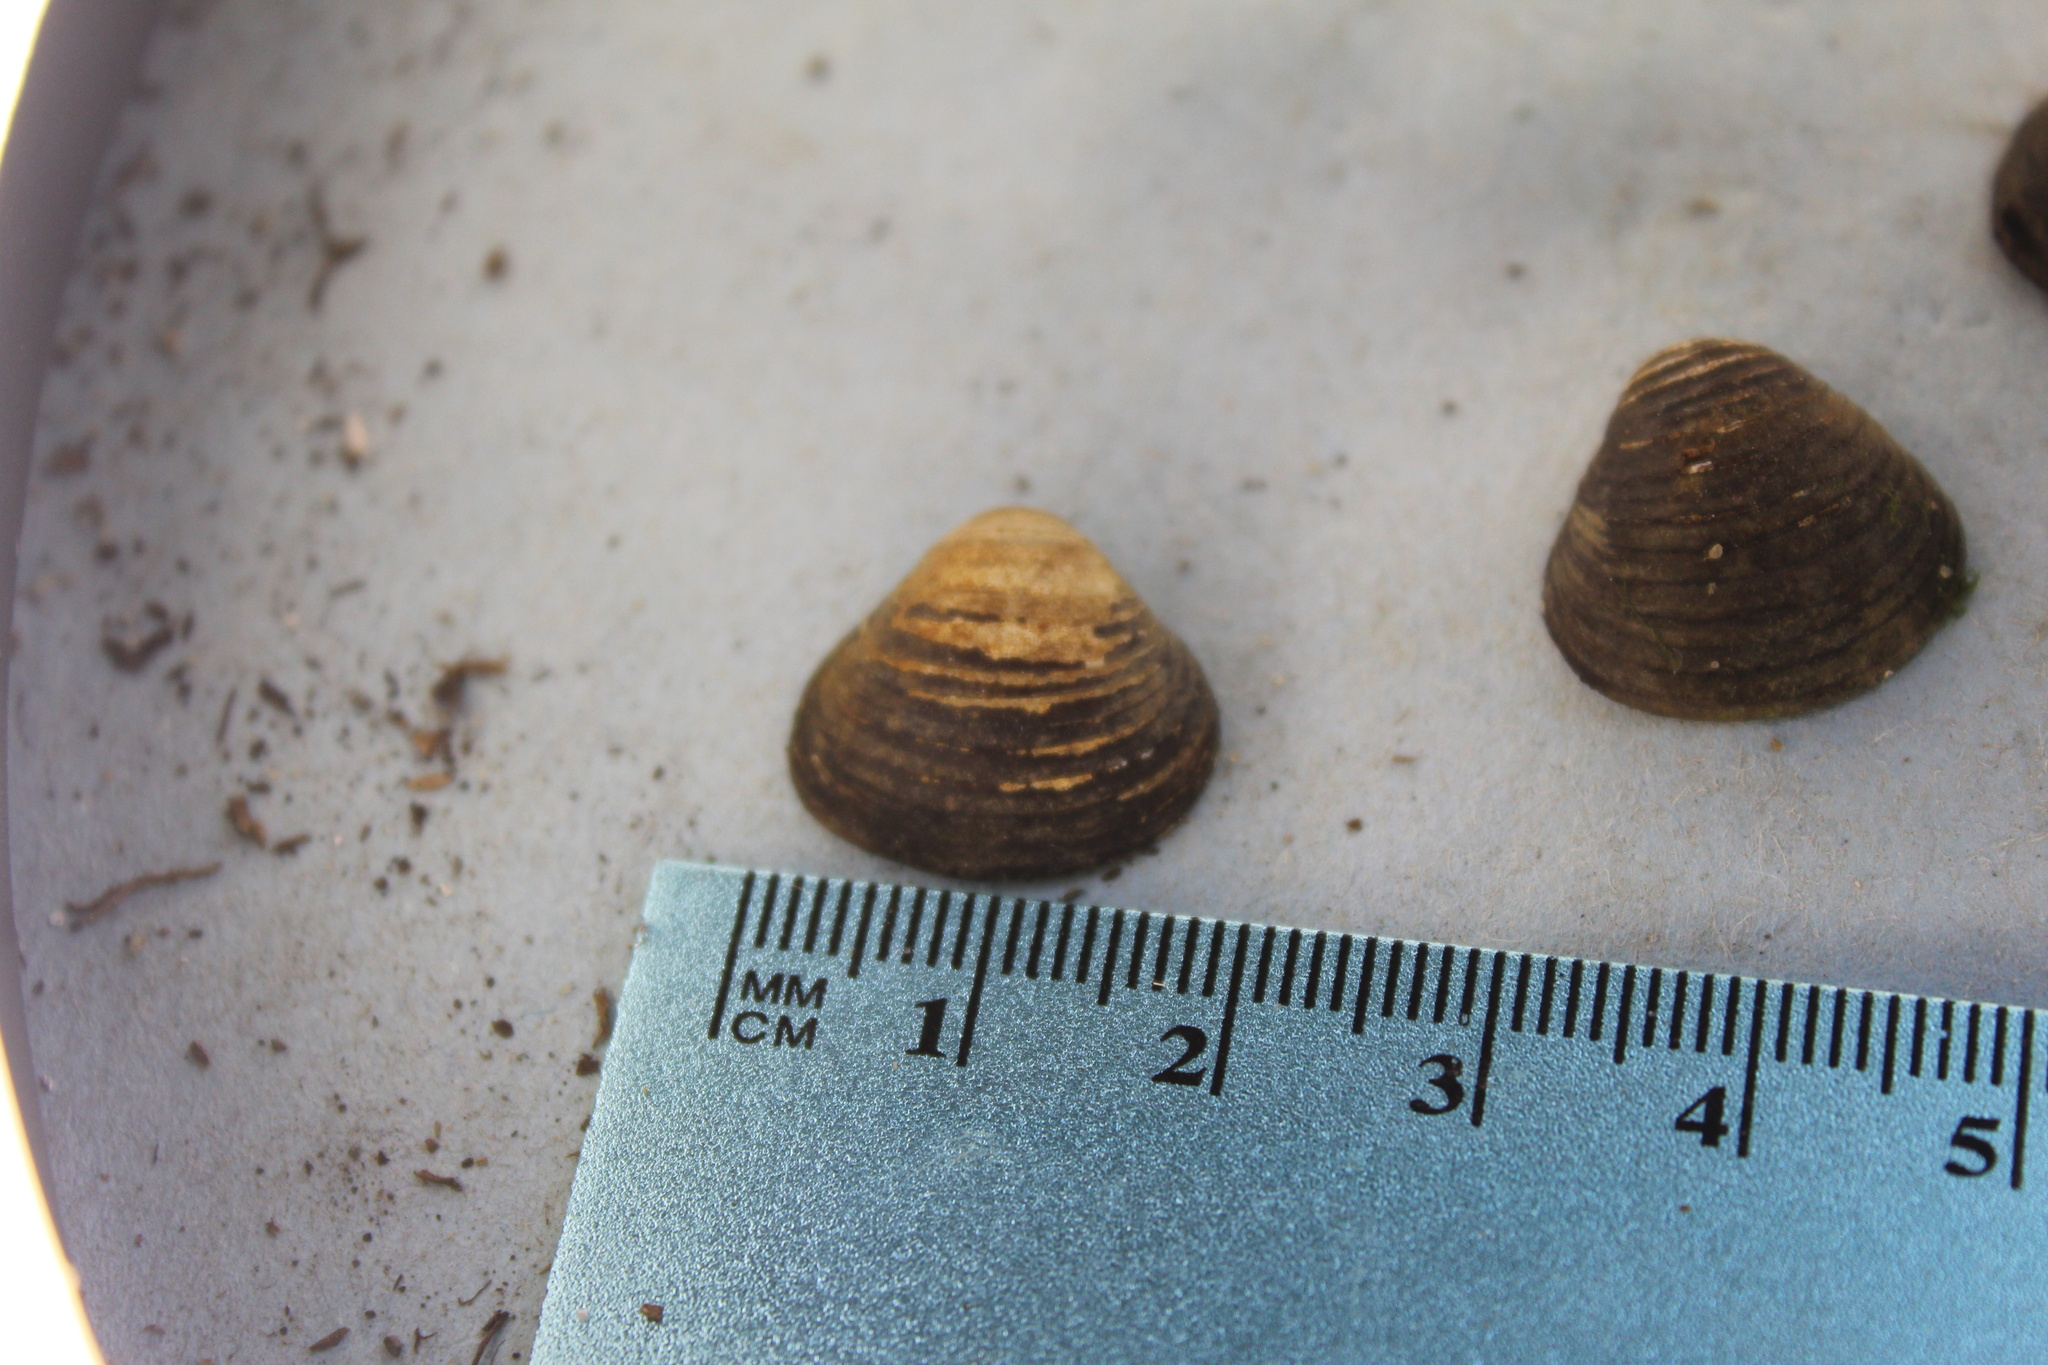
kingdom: Animalia
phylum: Mollusca
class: Bivalvia
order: Venerida
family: Cyrenidae
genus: Corbicula
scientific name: Corbicula fluminea
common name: Asian clam
